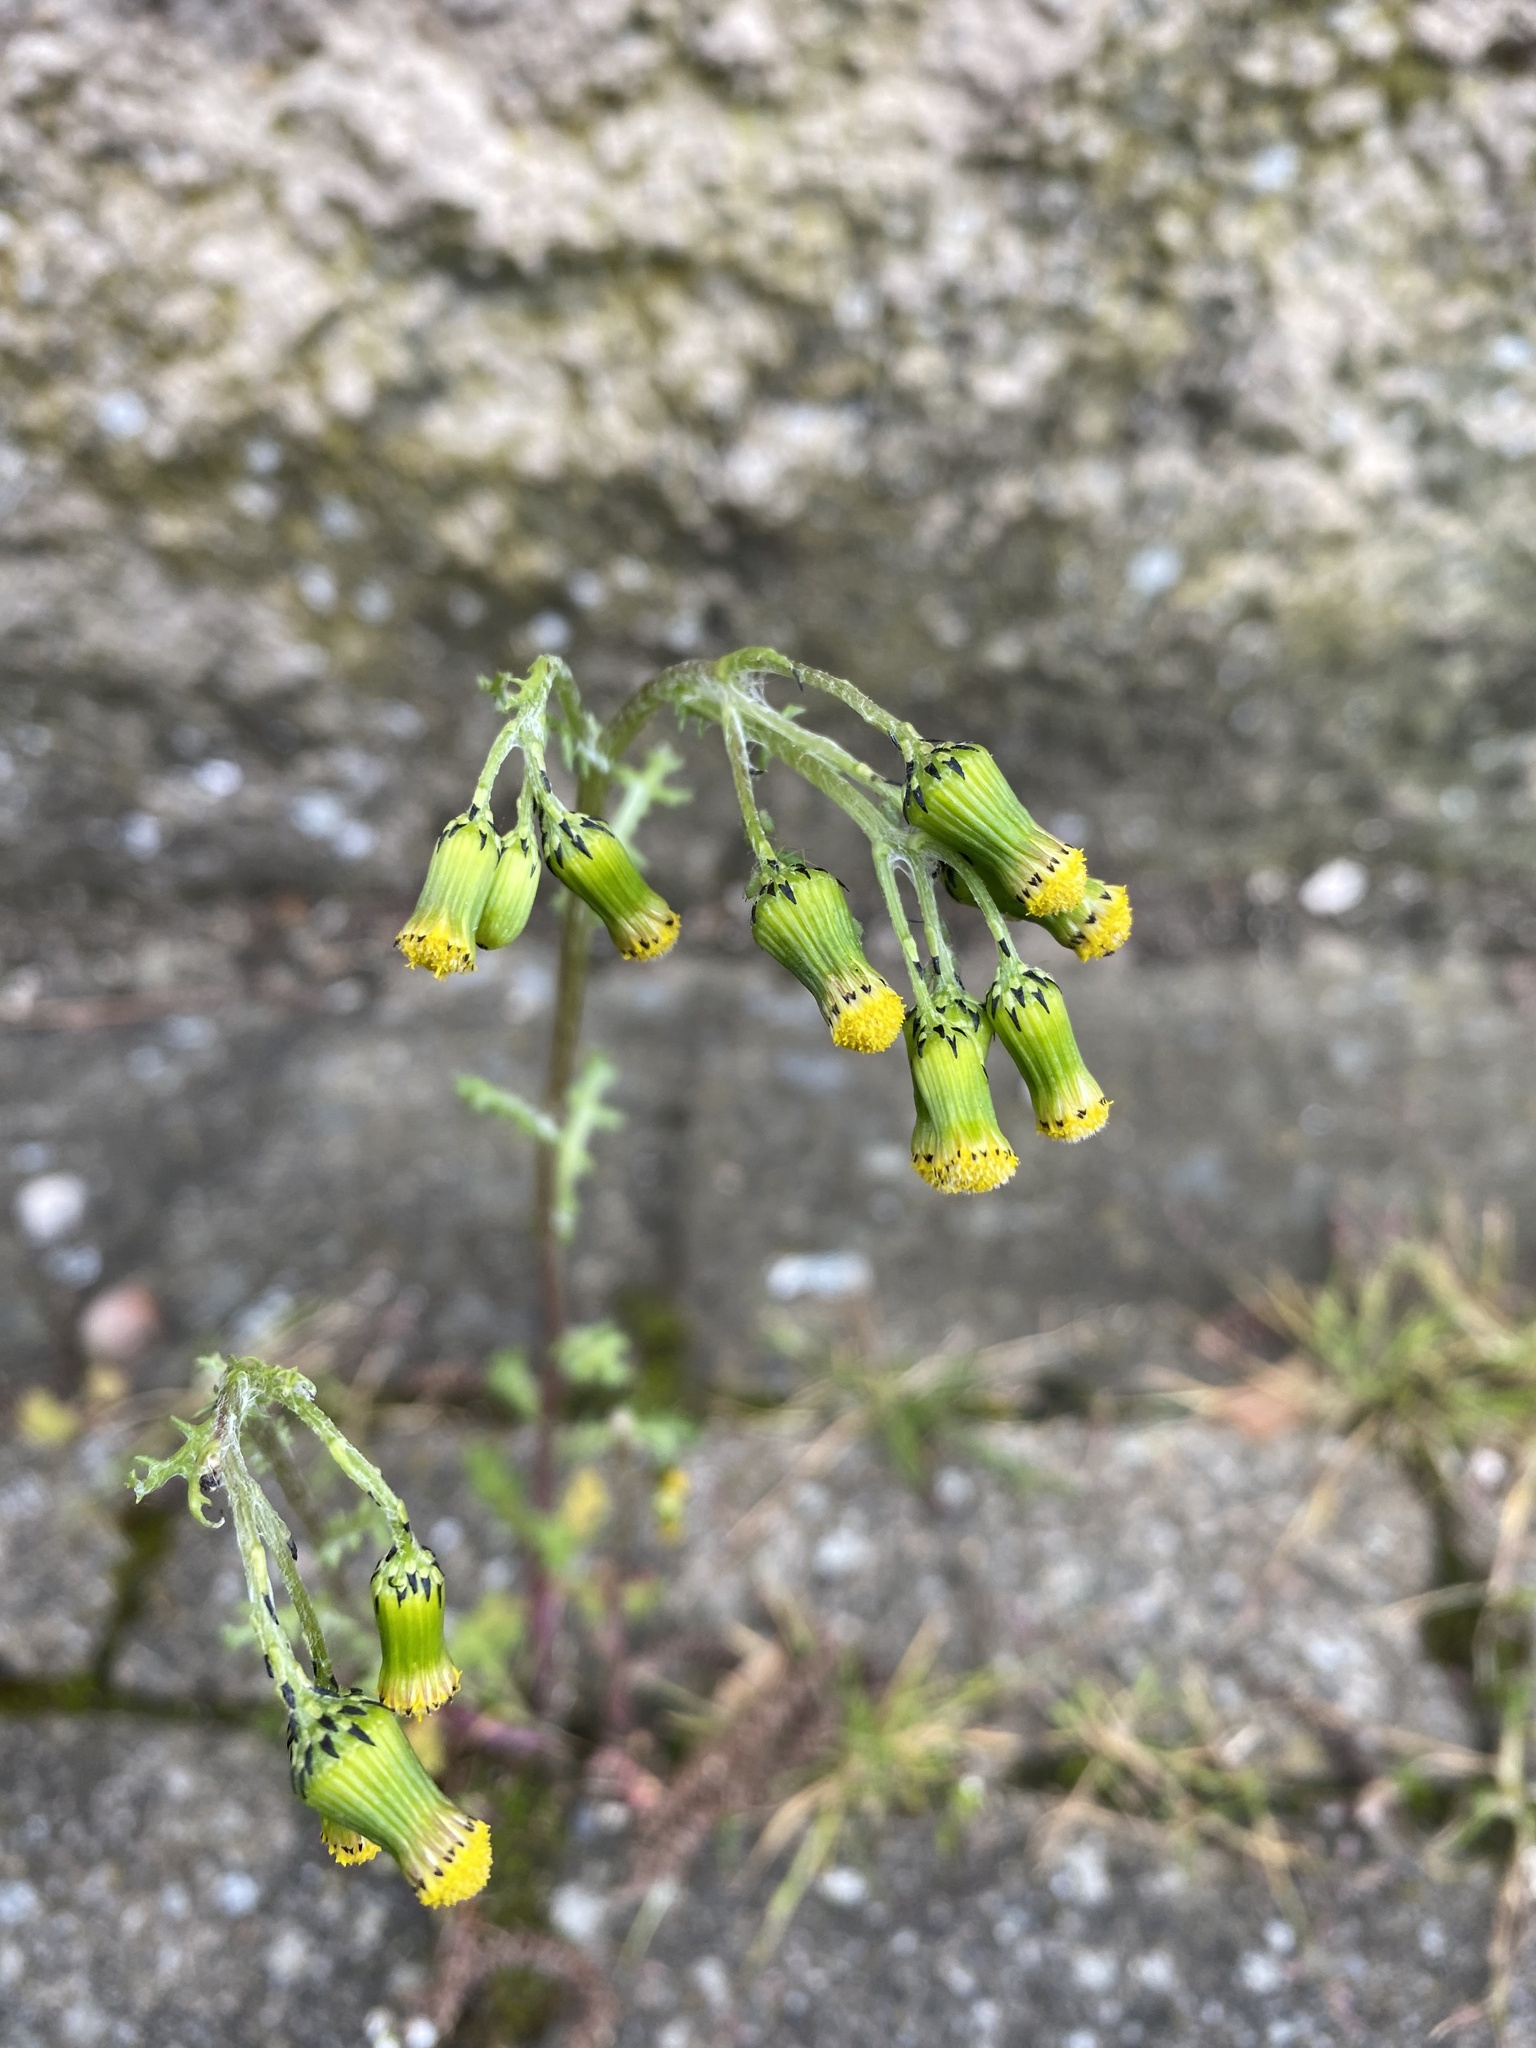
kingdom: Plantae
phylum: Tracheophyta
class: Magnoliopsida
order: Asterales
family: Asteraceae
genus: Senecio
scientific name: Senecio vulgaris
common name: Old-man-in-the-spring
